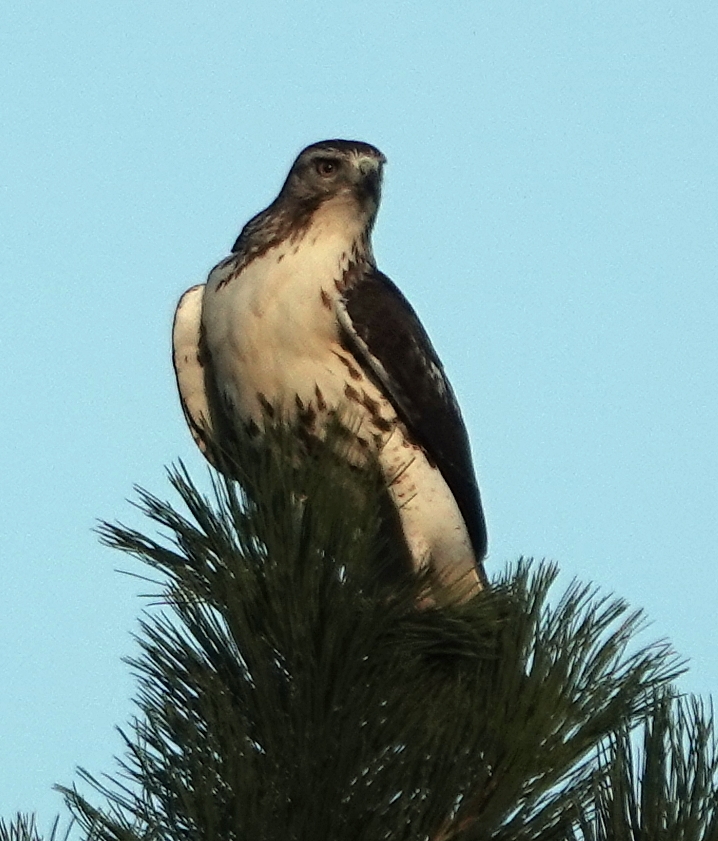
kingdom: Animalia
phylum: Chordata
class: Aves
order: Accipitriformes
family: Accipitridae
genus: Buteo
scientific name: Buteo jamaicensis
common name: Red-tailed hawk
